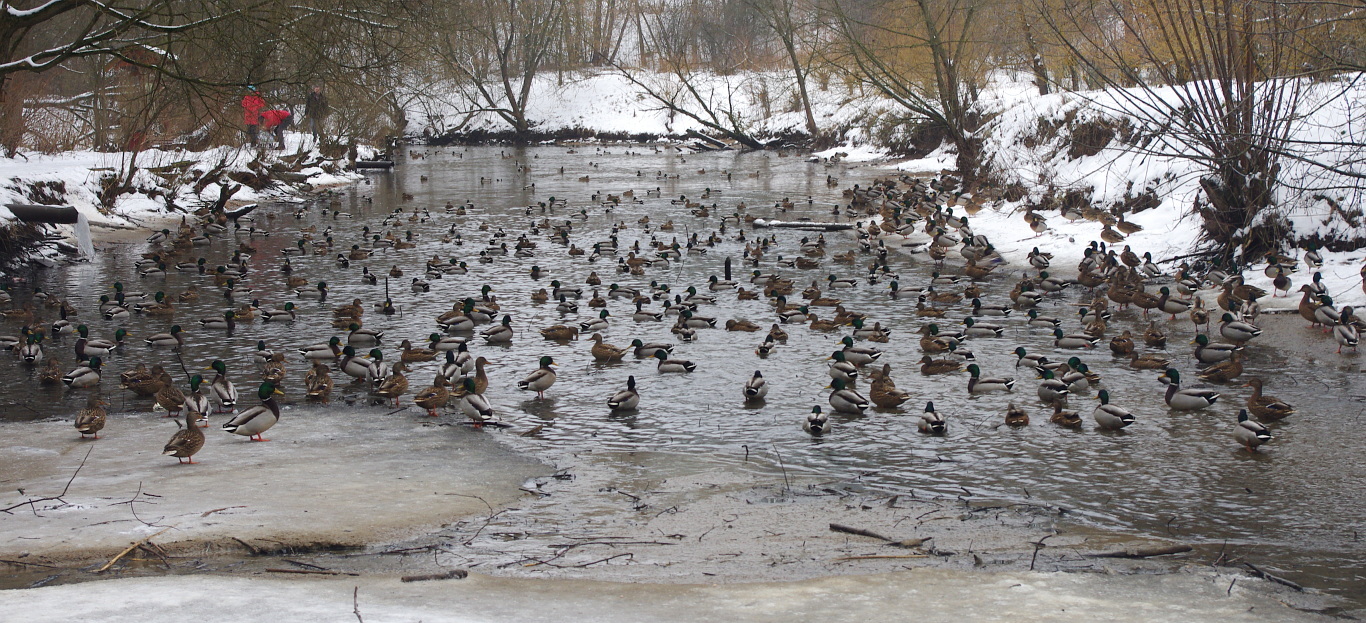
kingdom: Animalia
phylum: Chordata
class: Aves
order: Anseriformes
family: Anatidae
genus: Anas
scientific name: Anas platyrhynchos
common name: Mallard
